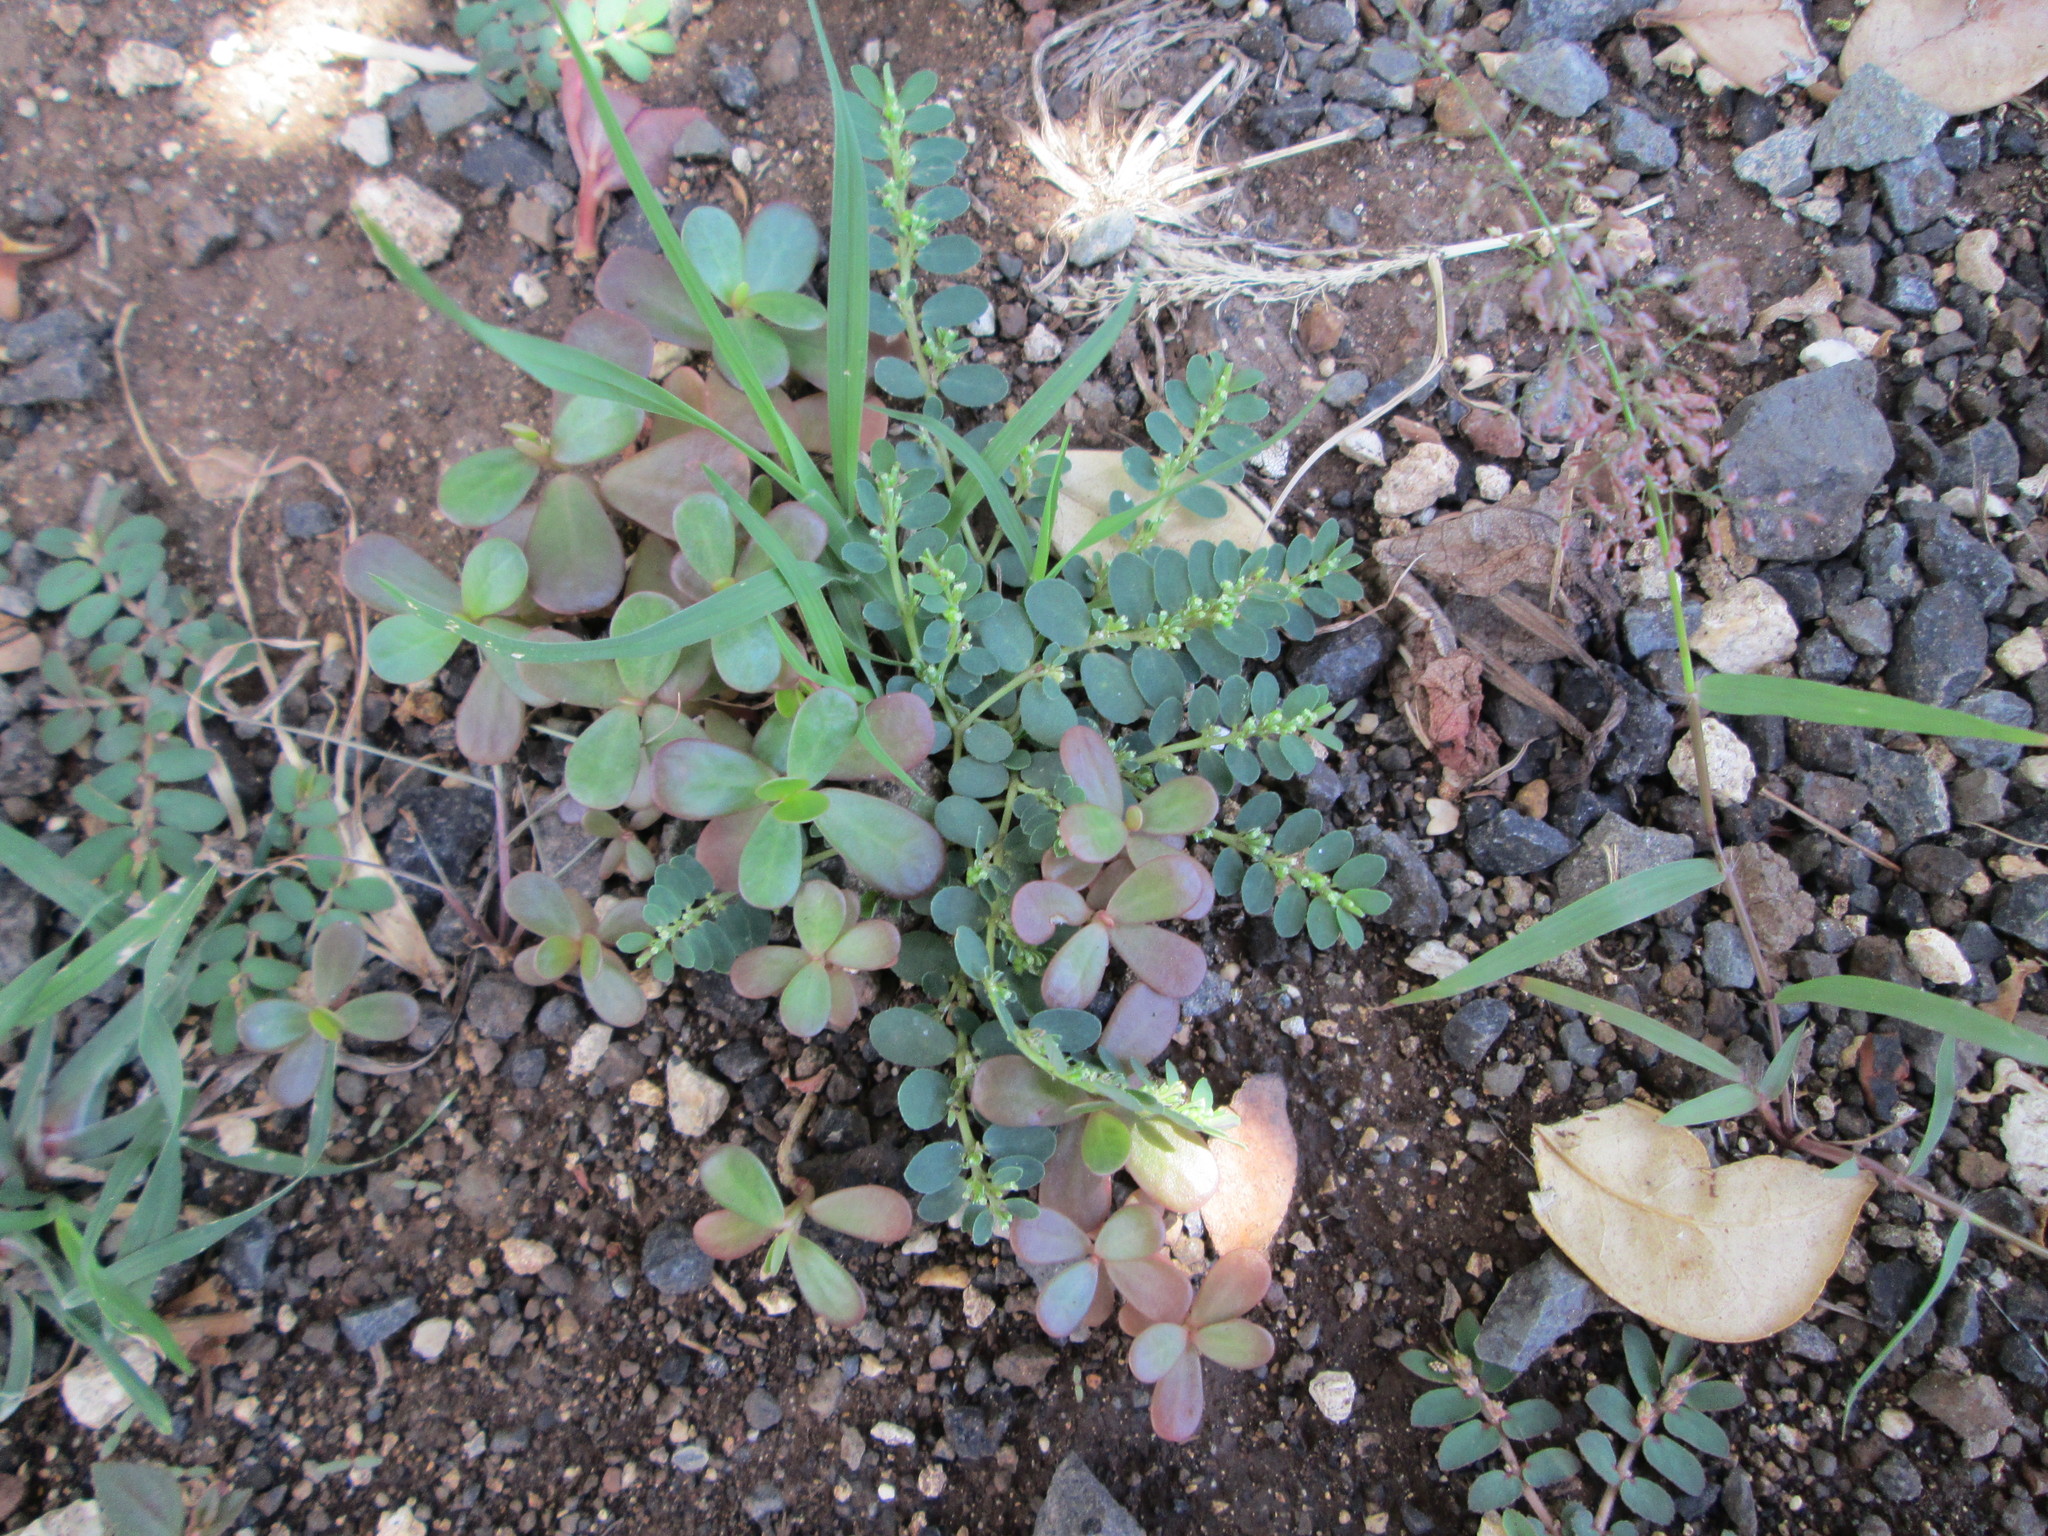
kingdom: Plantae
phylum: Tracheophyta
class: Magnoliopsida
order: Malpighiales
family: Euphorbiaceae
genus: Euphorbia
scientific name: Euphorbia prostrata
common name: Prostrate sandmat
